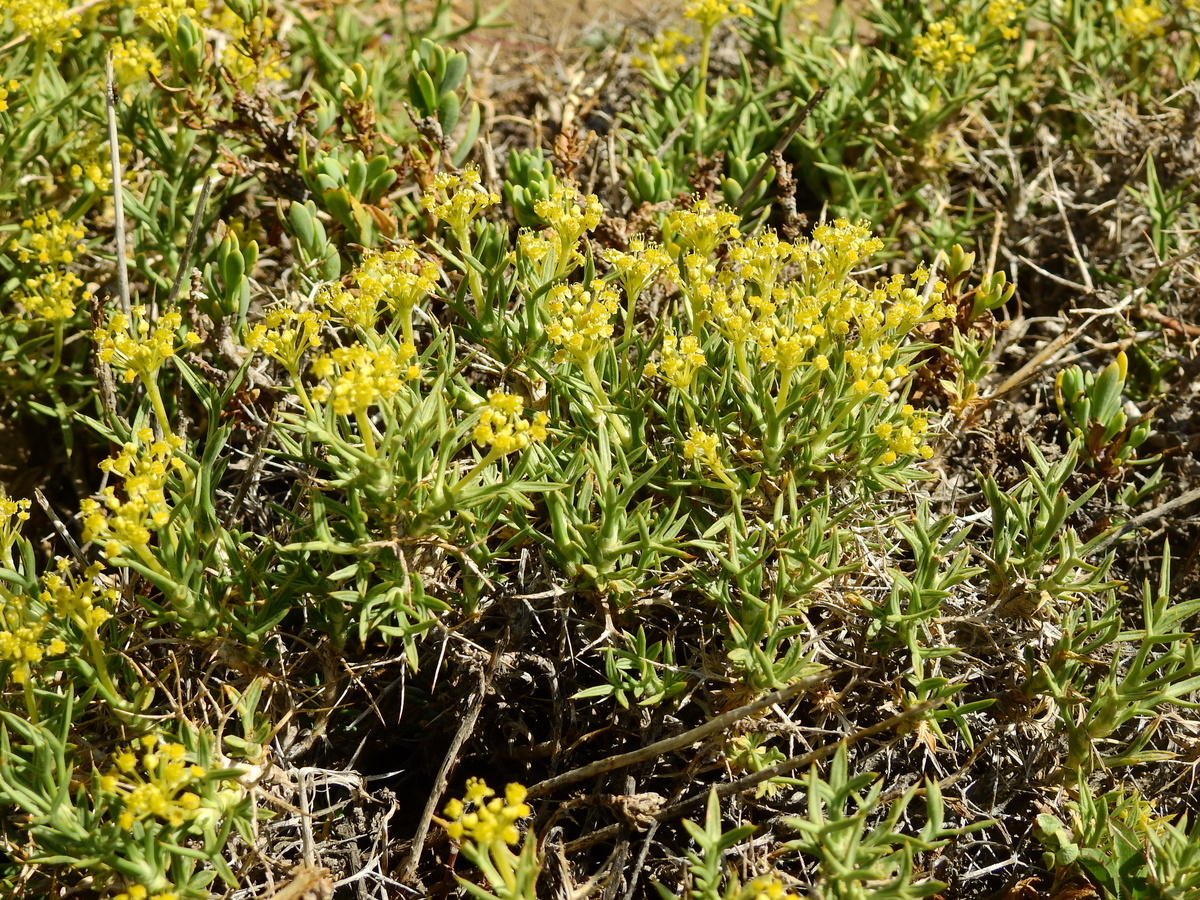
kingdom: Plantae
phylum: Tracheophyta
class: Magnoliopsida
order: Apiales
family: Apiaceae
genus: Azorella
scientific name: Azorella prolifera
